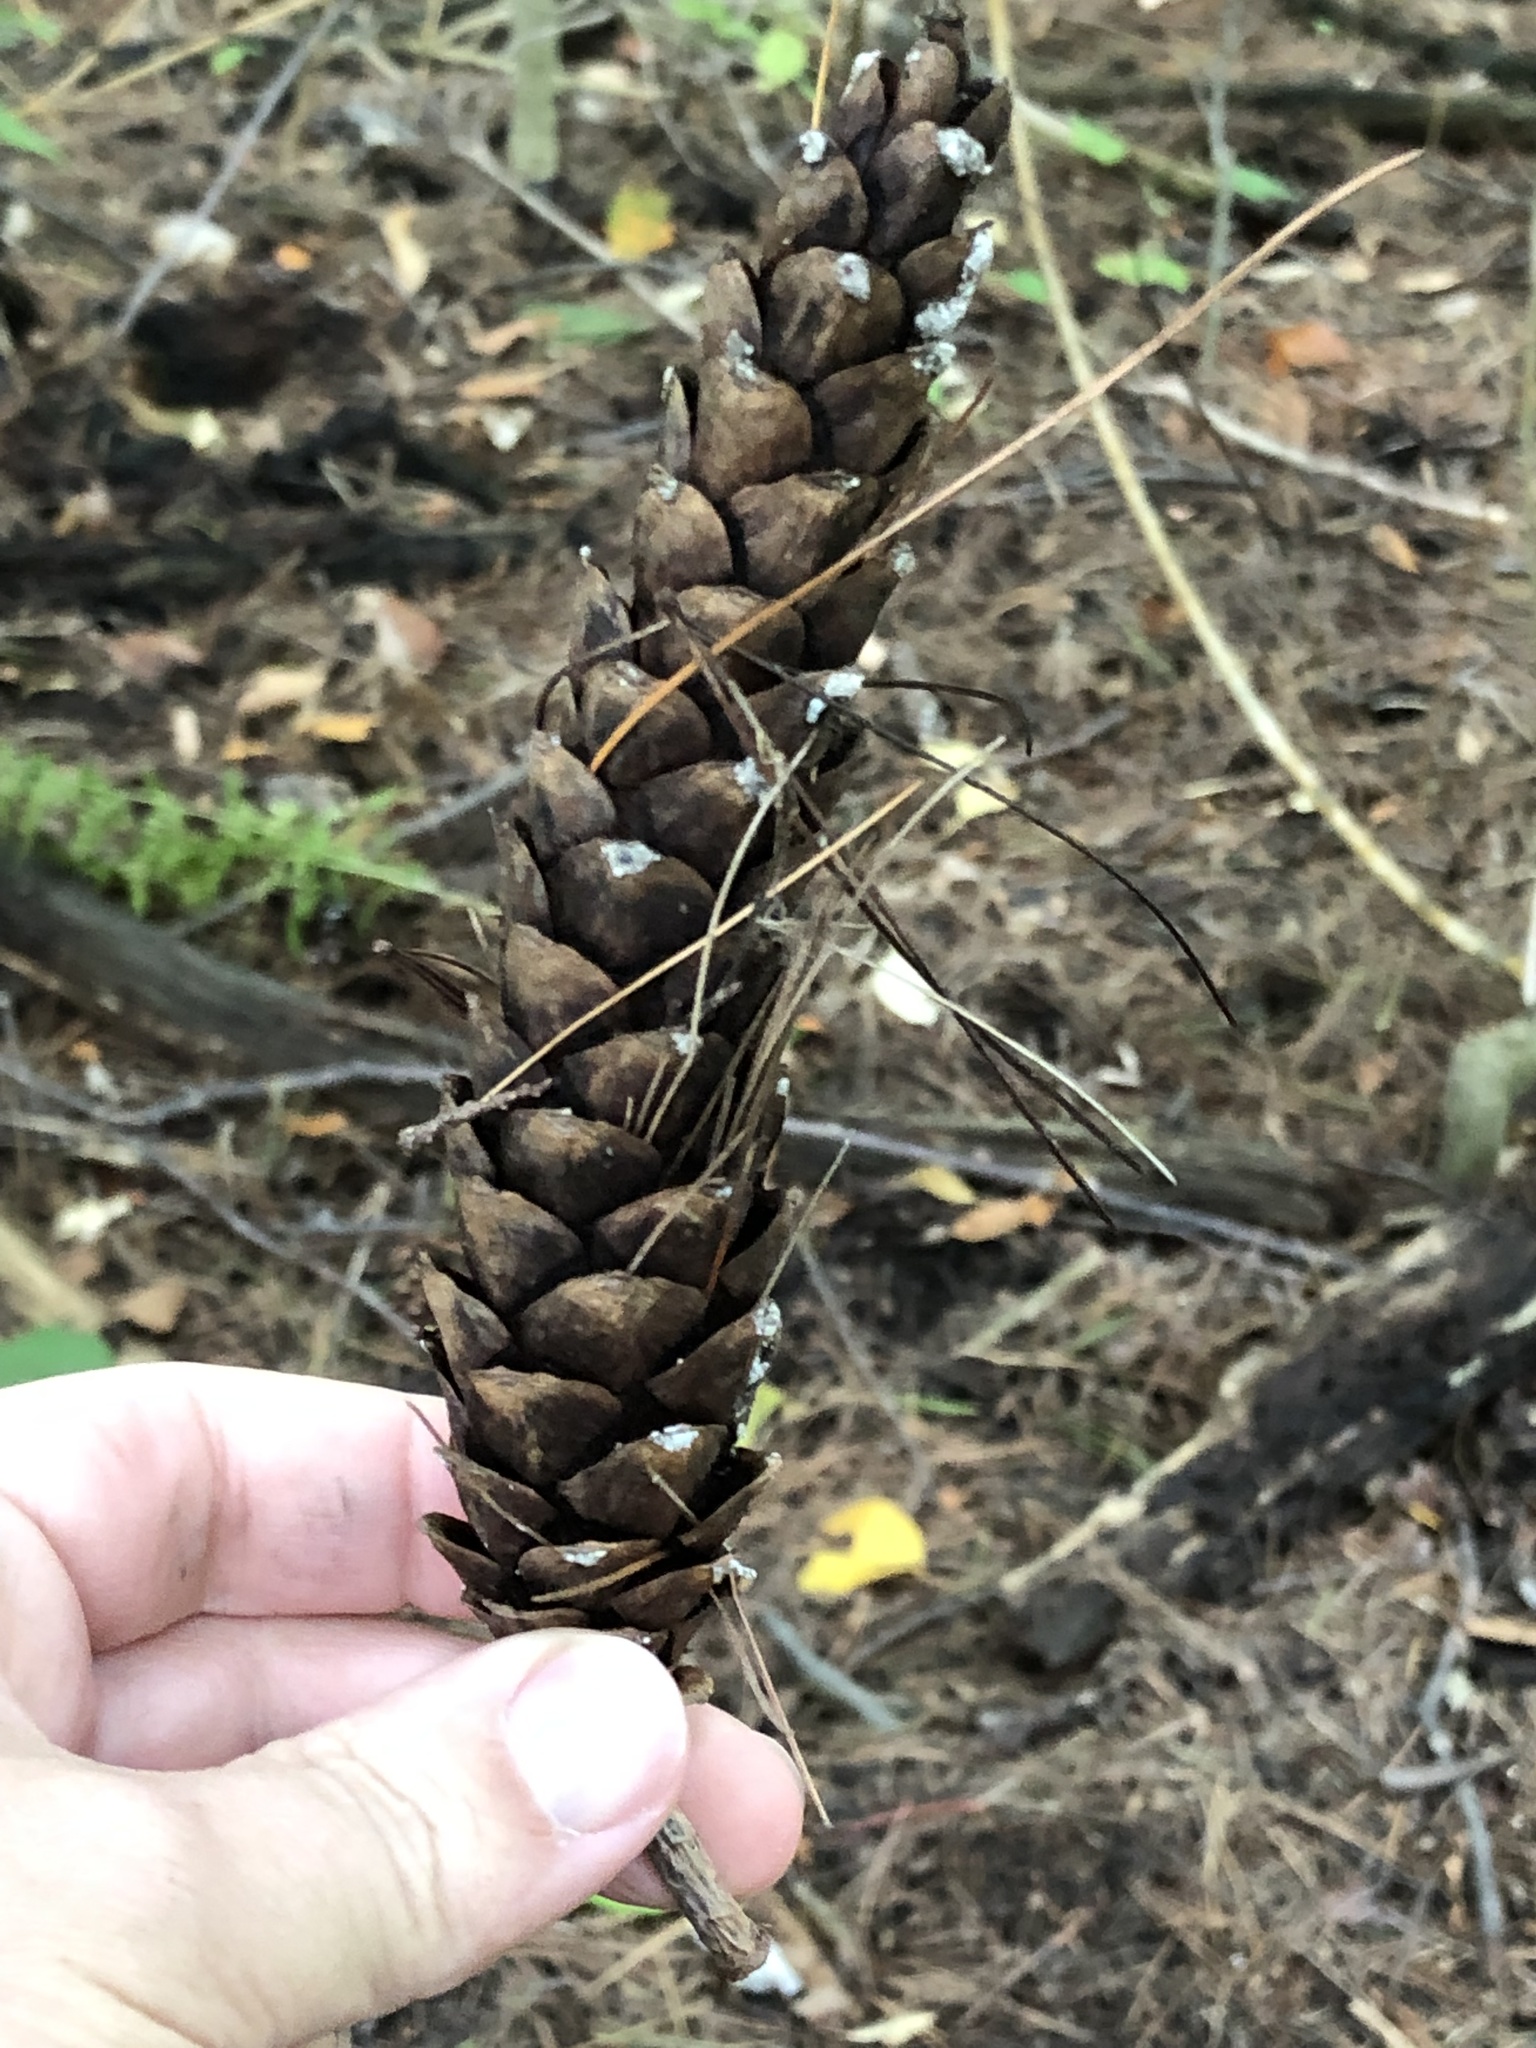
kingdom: Plantae
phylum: Tracheophyta
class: Pinopsida
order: Pinales
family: Pinaceae
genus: Pinus
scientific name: Pinus strobus
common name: Weymouth pine
